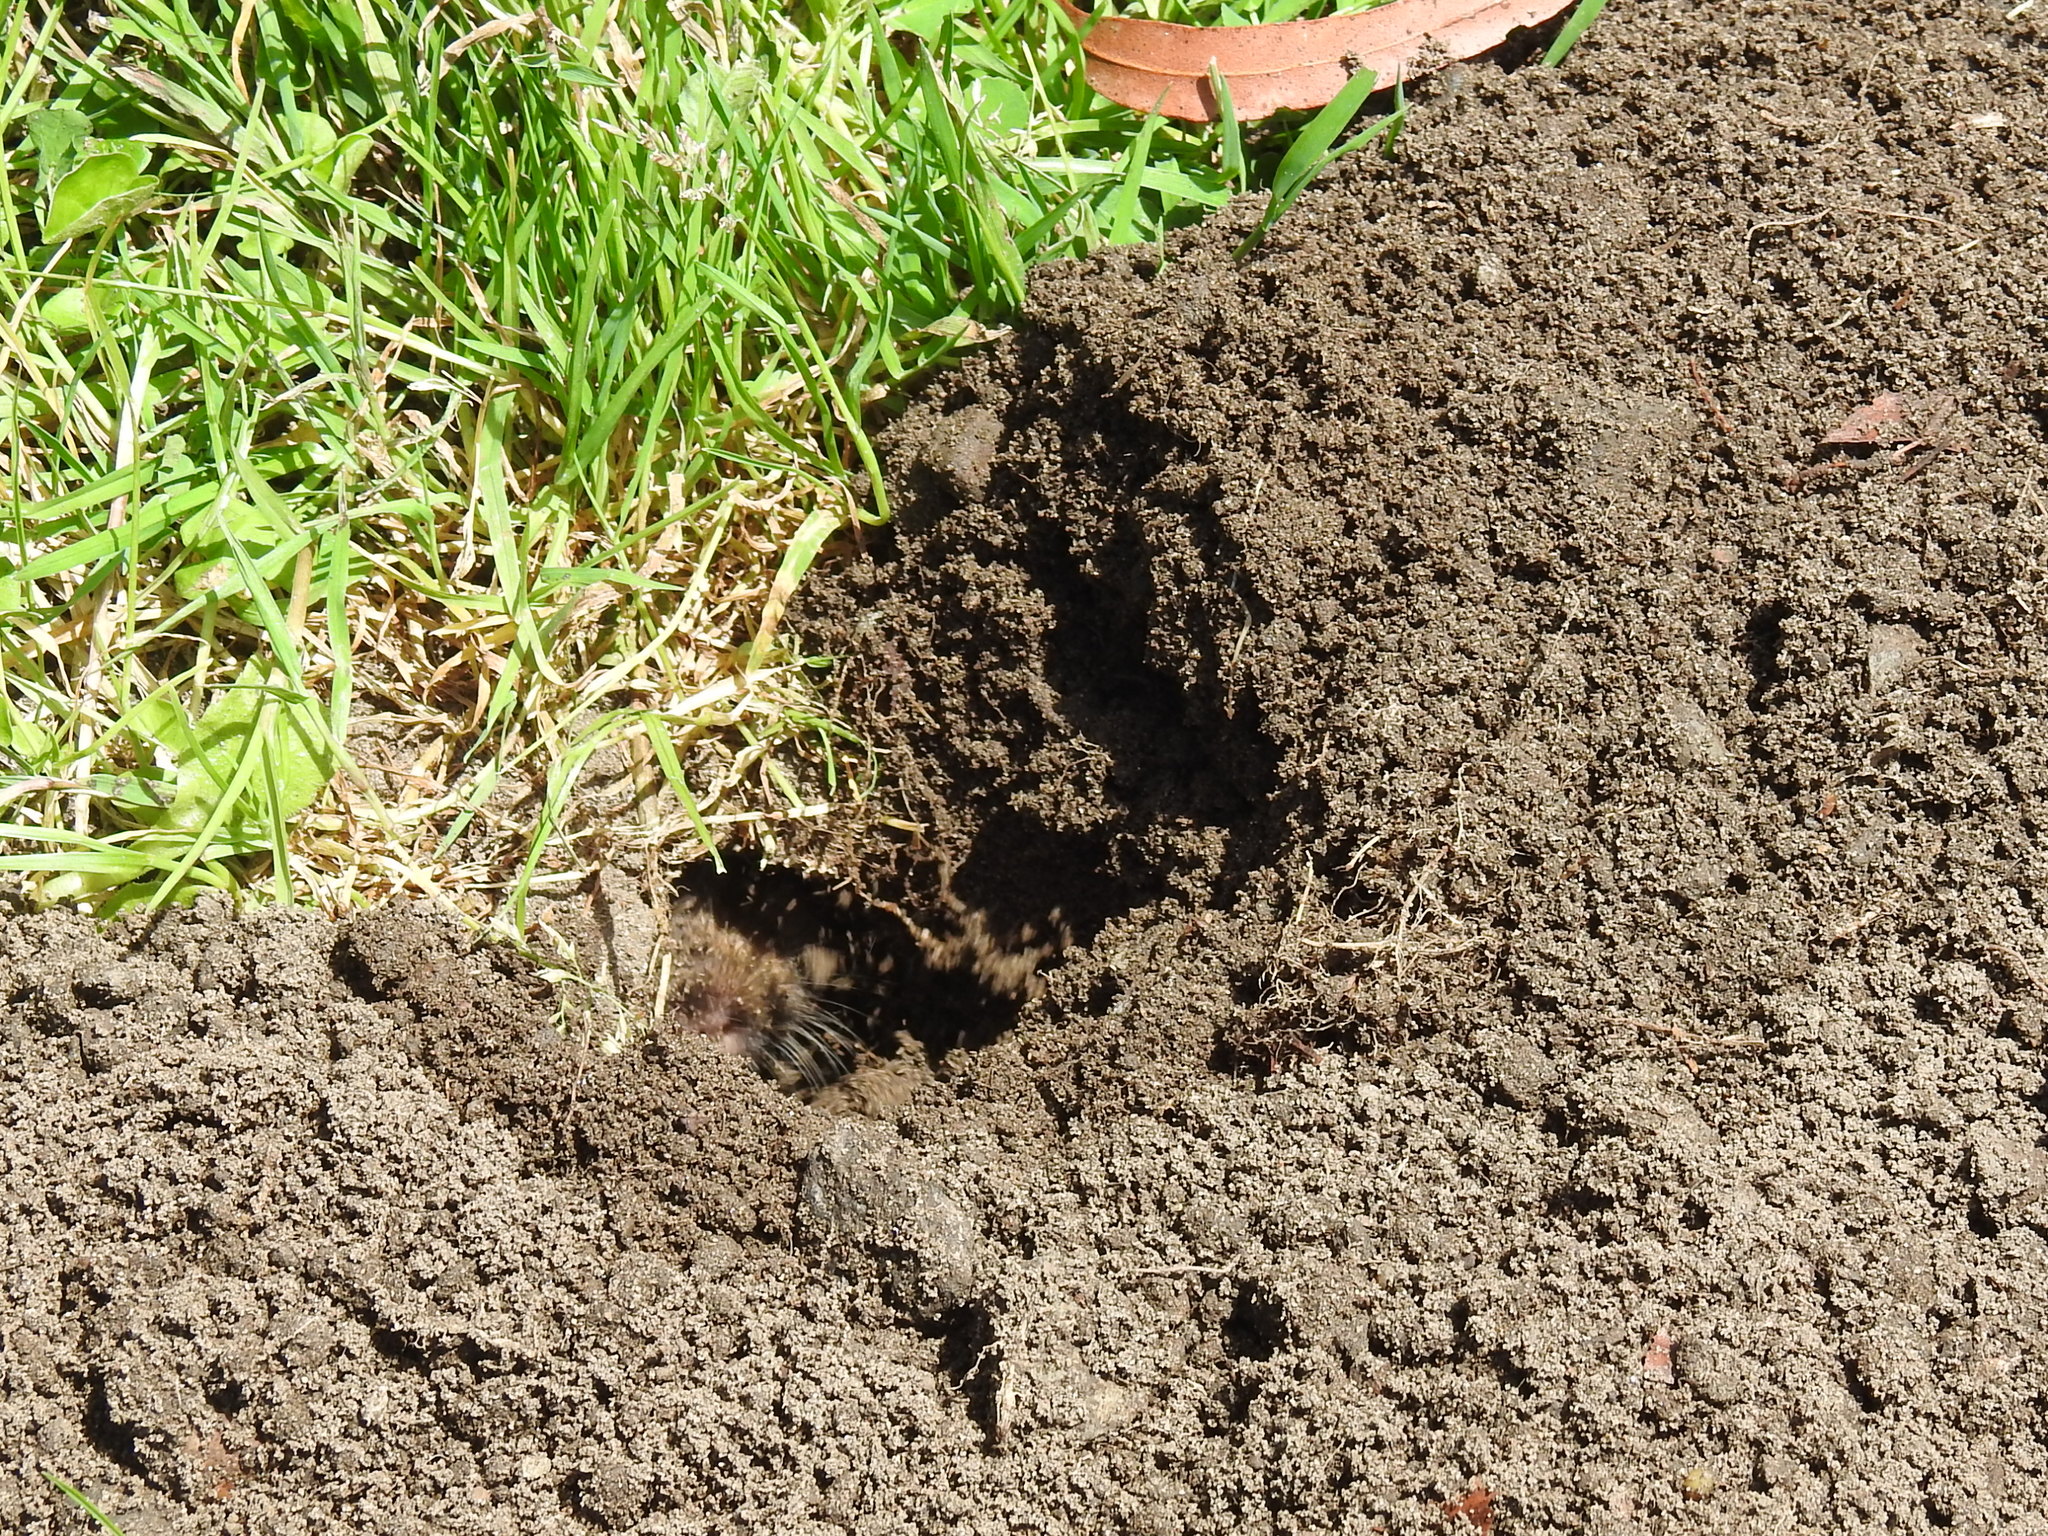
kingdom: Animalia
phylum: Chordata
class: Mammalia
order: Rodentia
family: Geomyidae
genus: Thomomys
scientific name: Thomomys bottae
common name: Botta's pocket gopher
